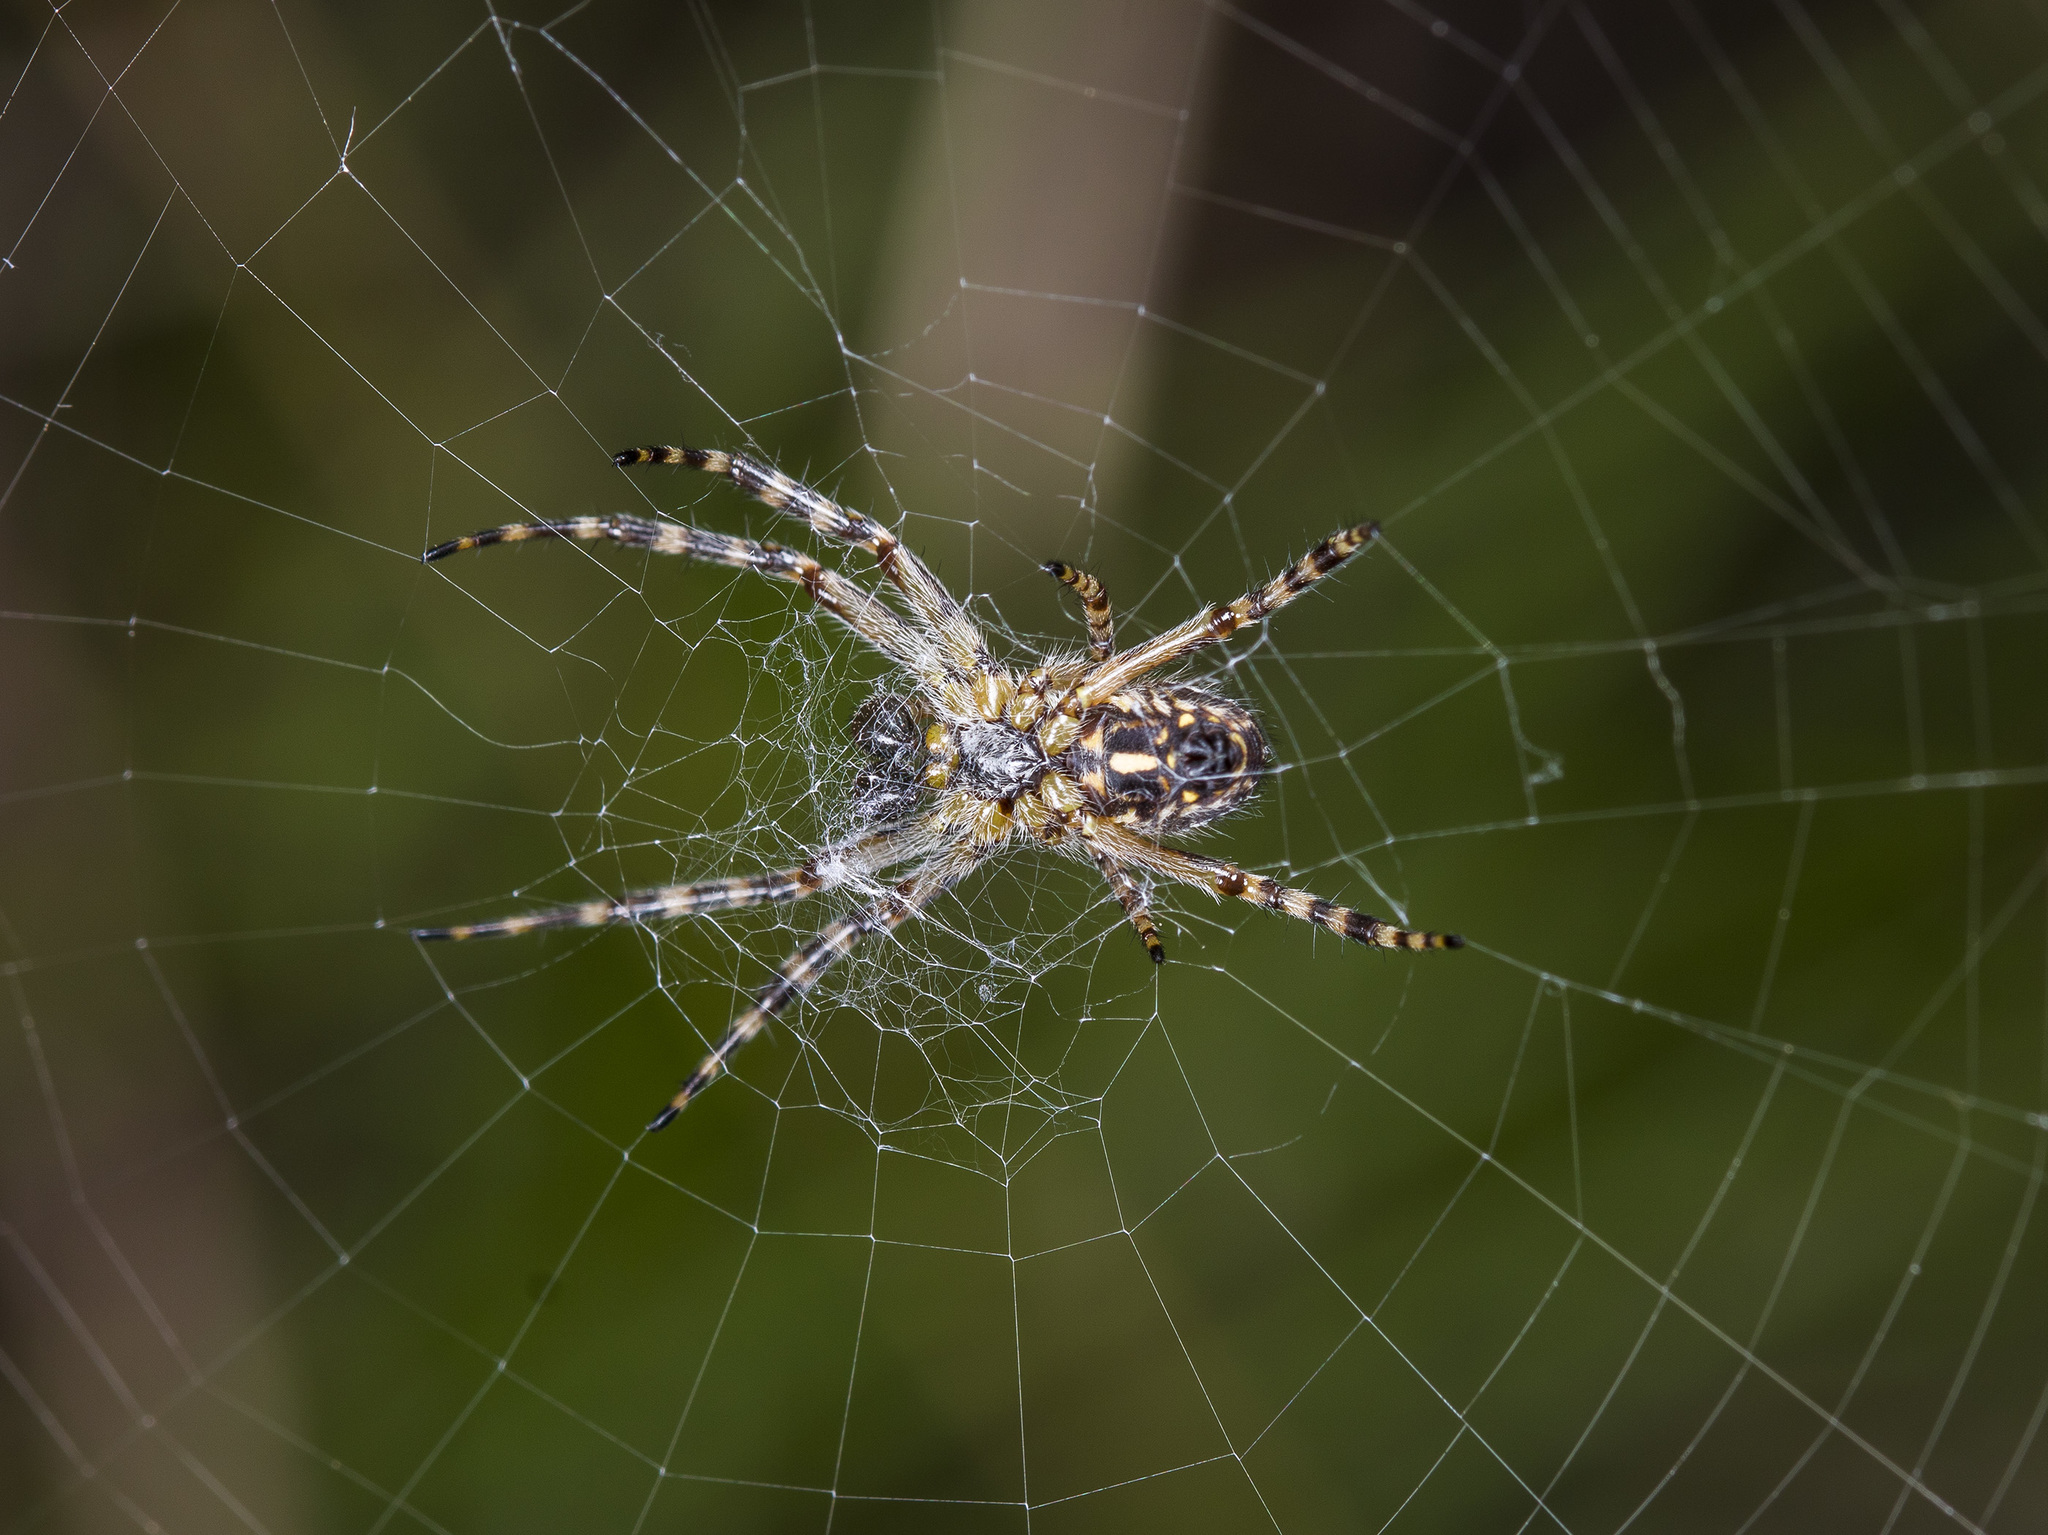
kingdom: Animalia
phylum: Arthropoda
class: Arachnida
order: Araneae
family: Araneidae
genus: Aculepeira
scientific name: Aculepeira armida
